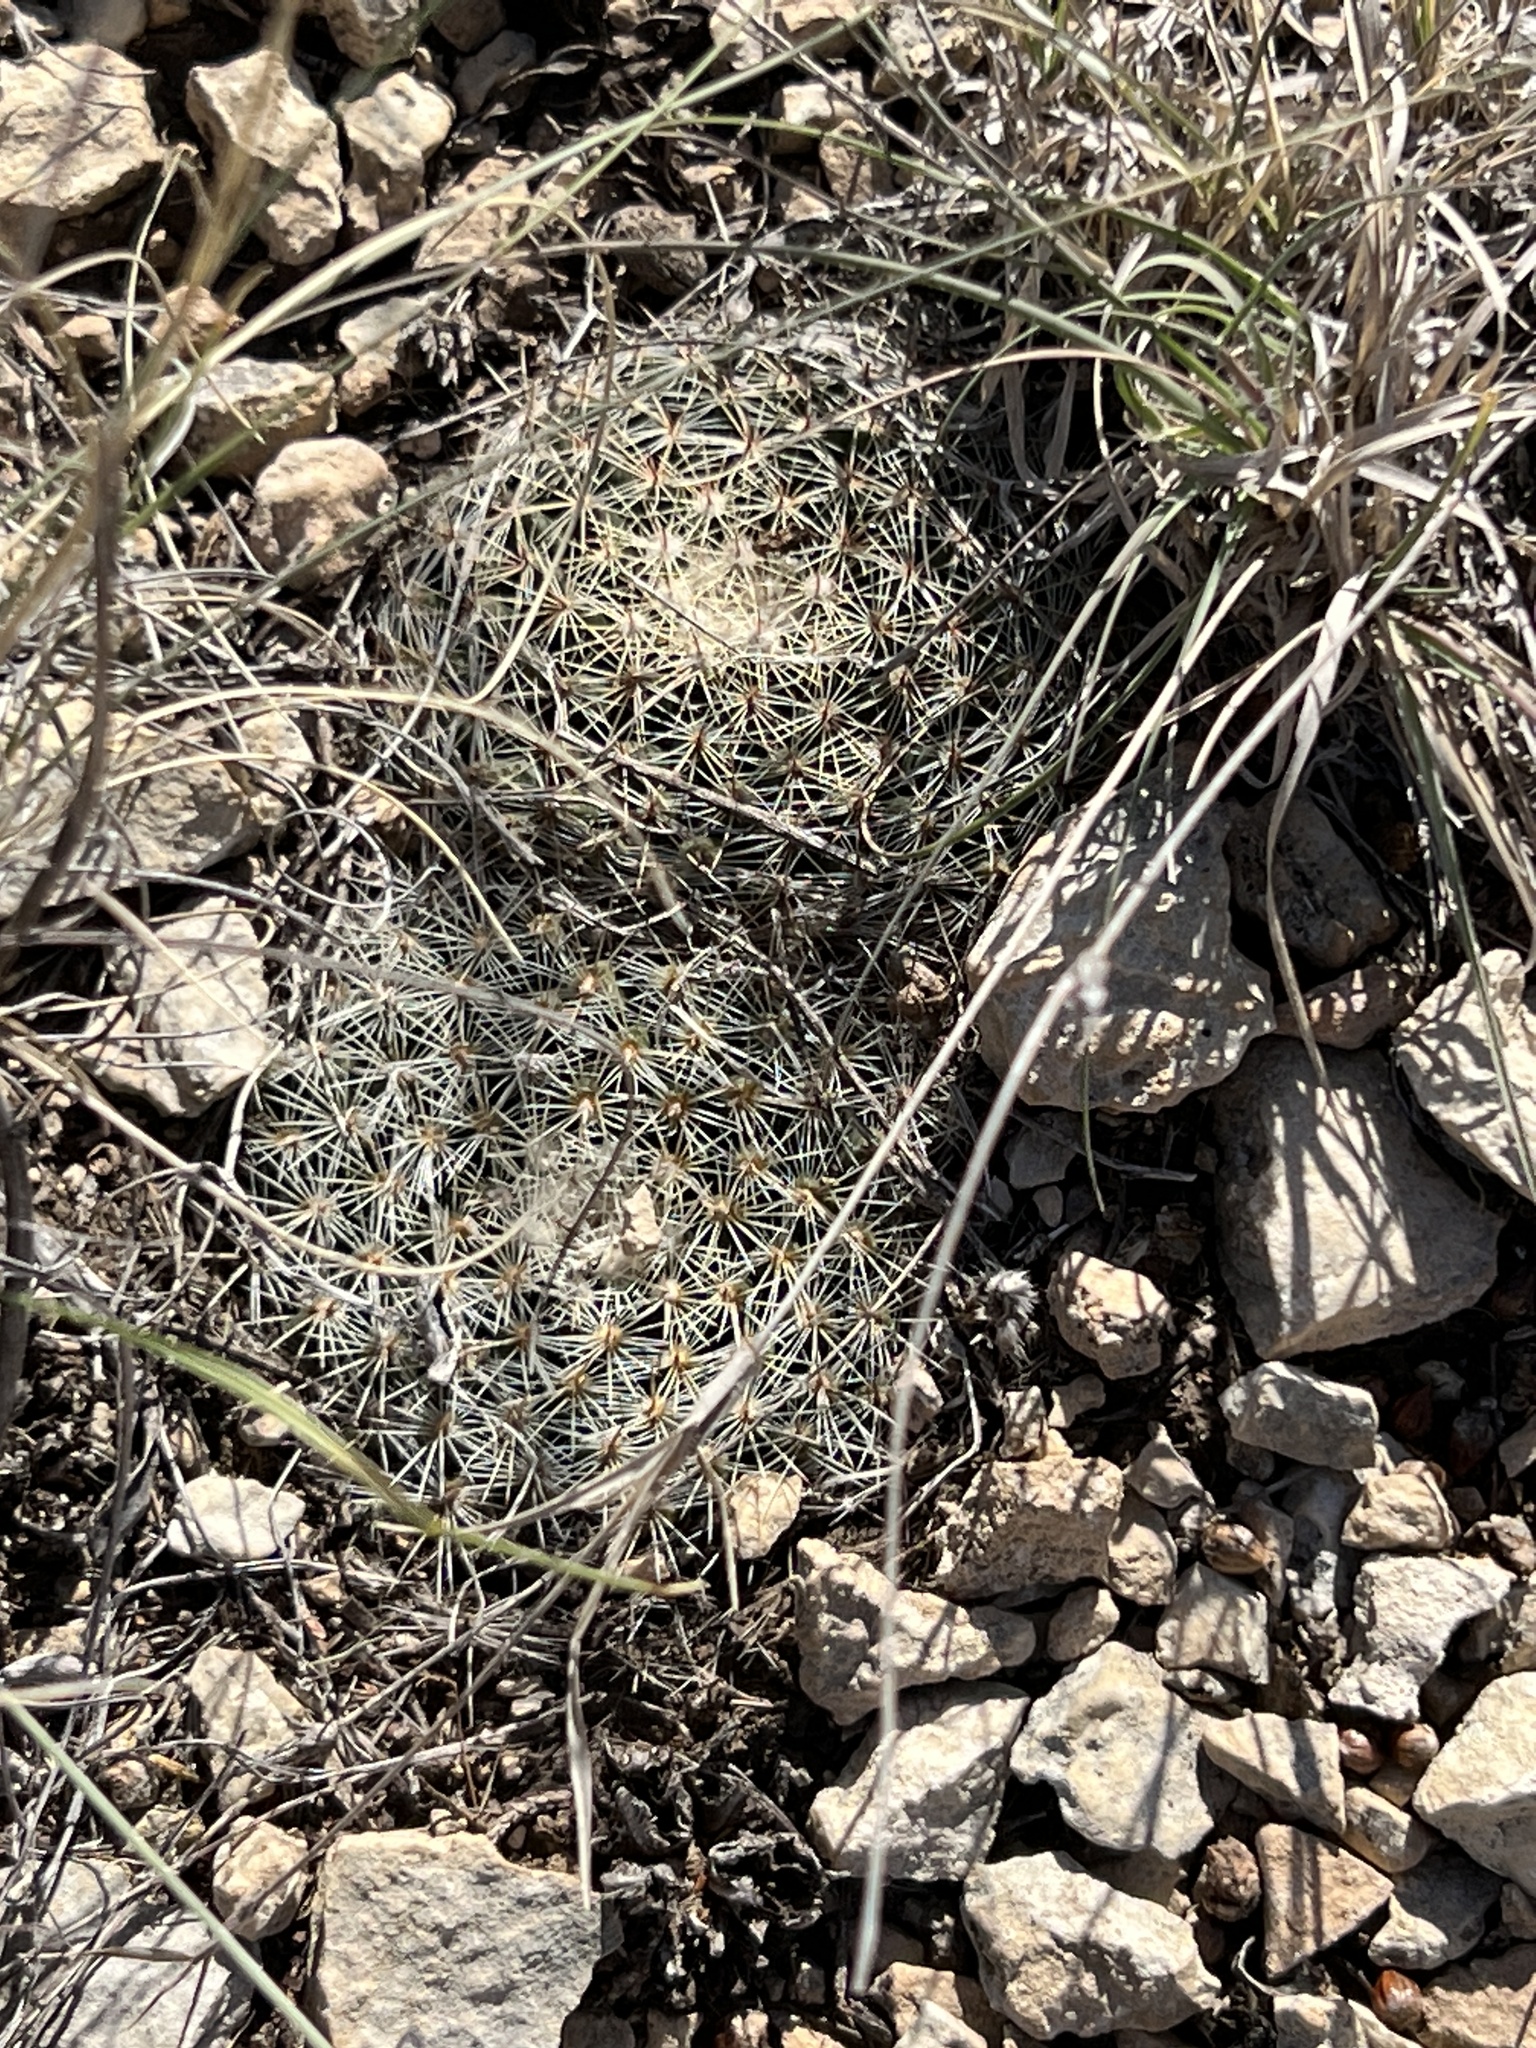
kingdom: Plantae
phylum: Tracheophyta
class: Magnoliopsida
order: Caryophyllales
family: Cactaceae
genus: Mammillaria
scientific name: Mammillaria heyderi
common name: Little nipple cactus
